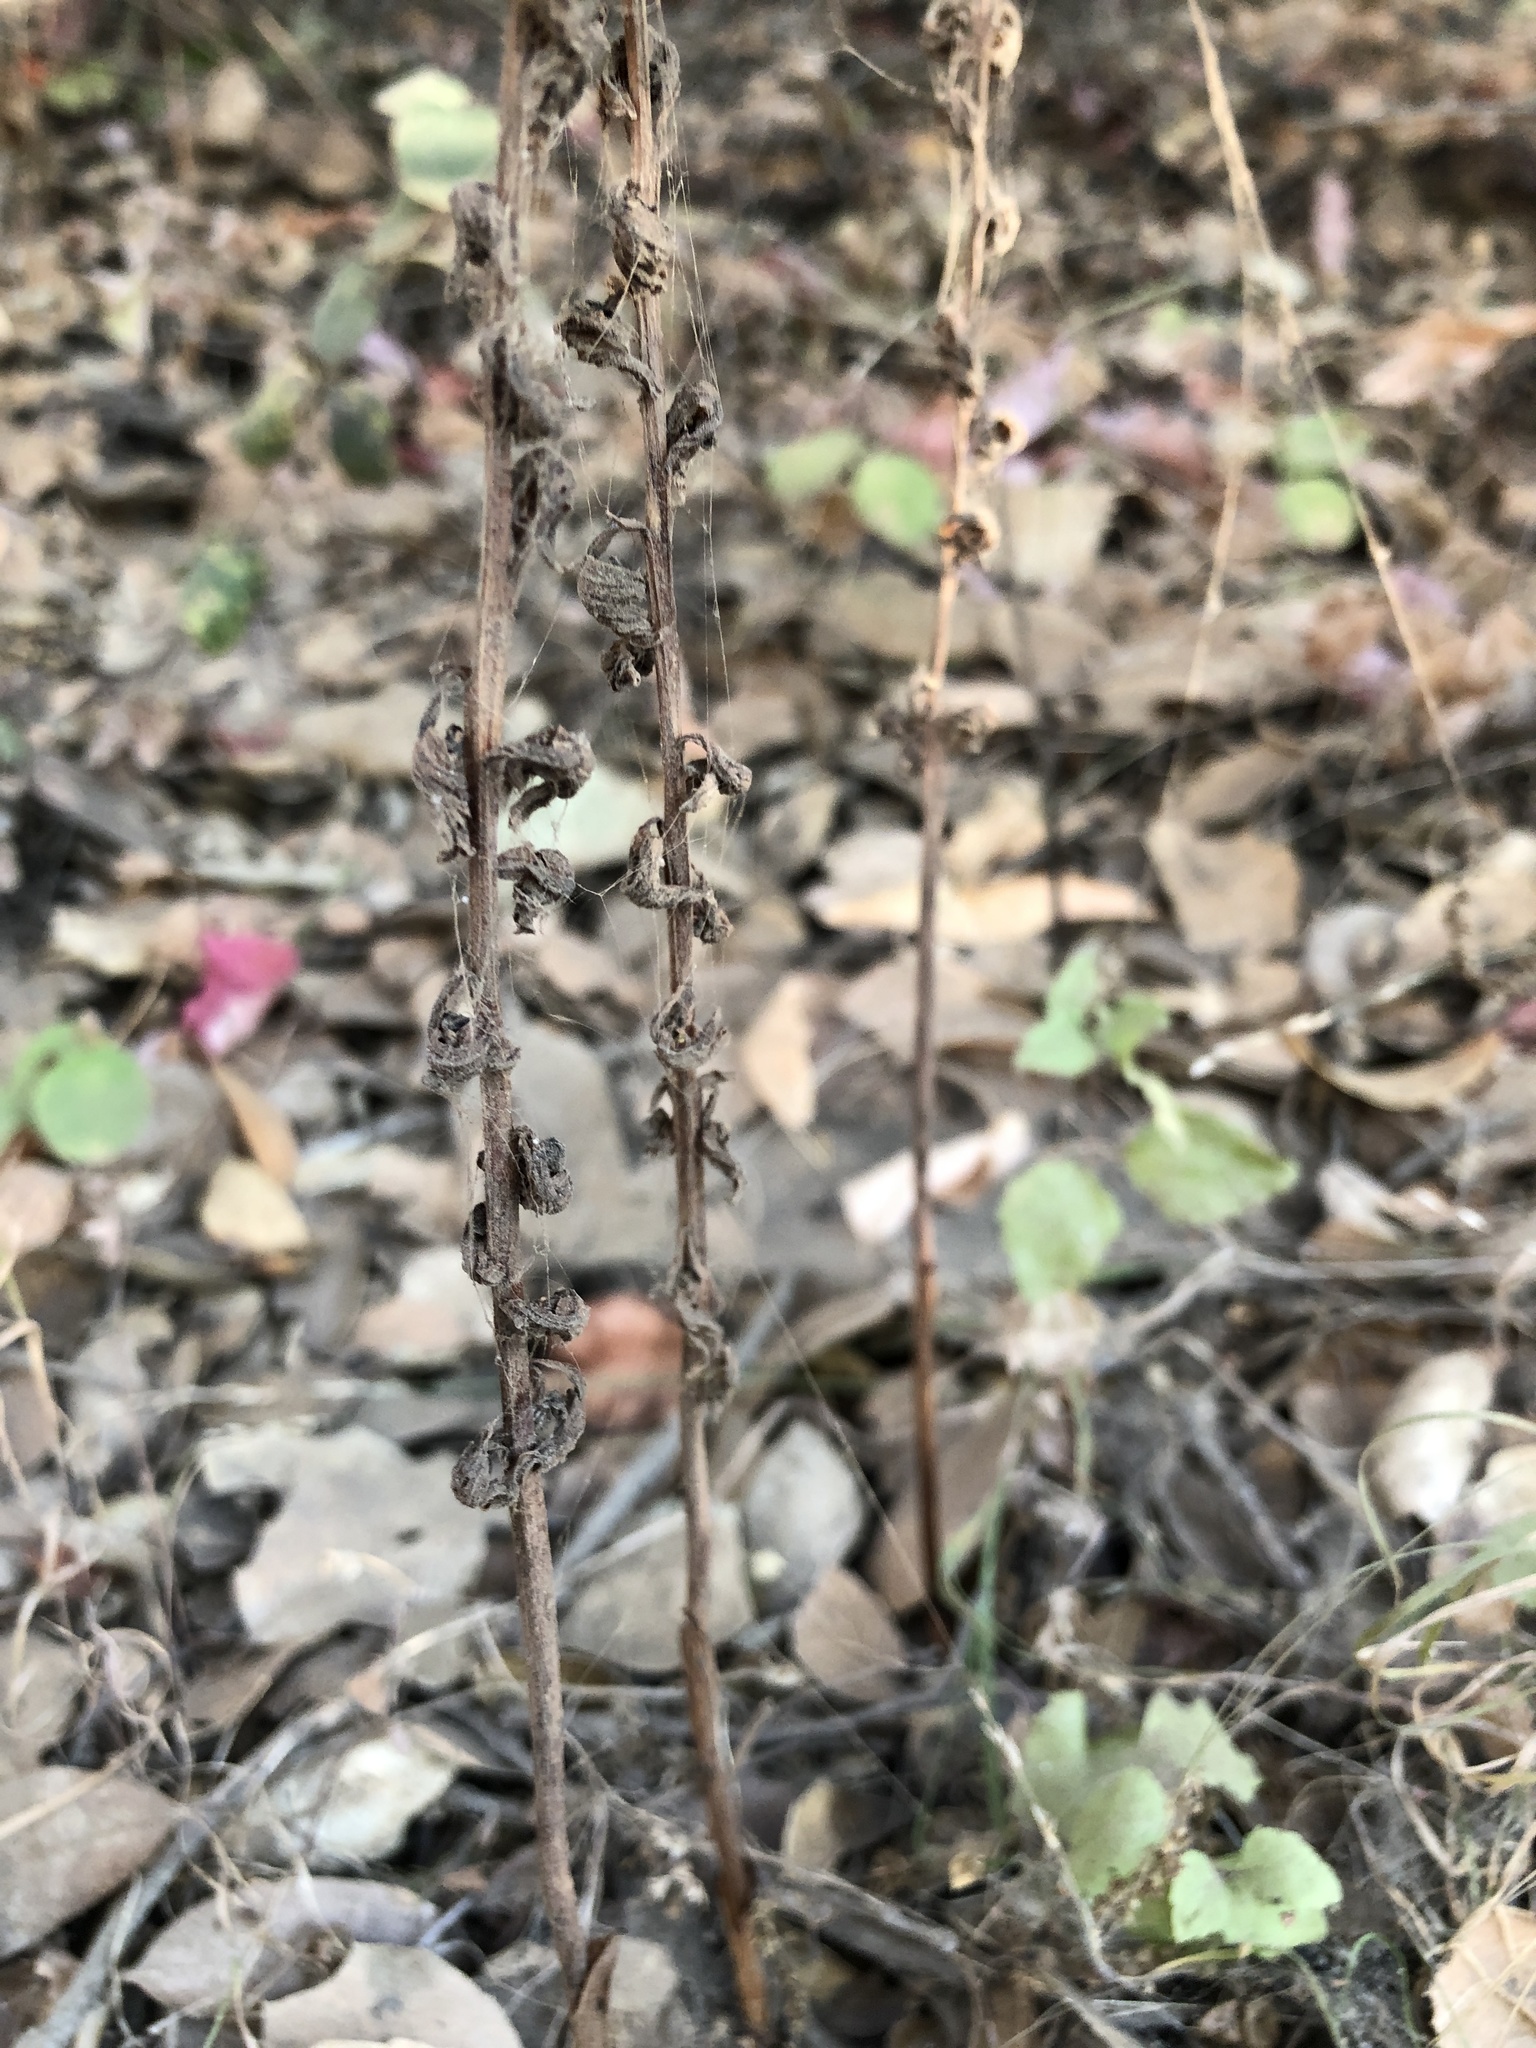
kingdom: Plantae
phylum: Tracheophyta
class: Liliopsida
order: Asparagales
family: Orchidaceae
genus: Corallorhiza
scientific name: Corallorhiza striata
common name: Hooded coralroot
